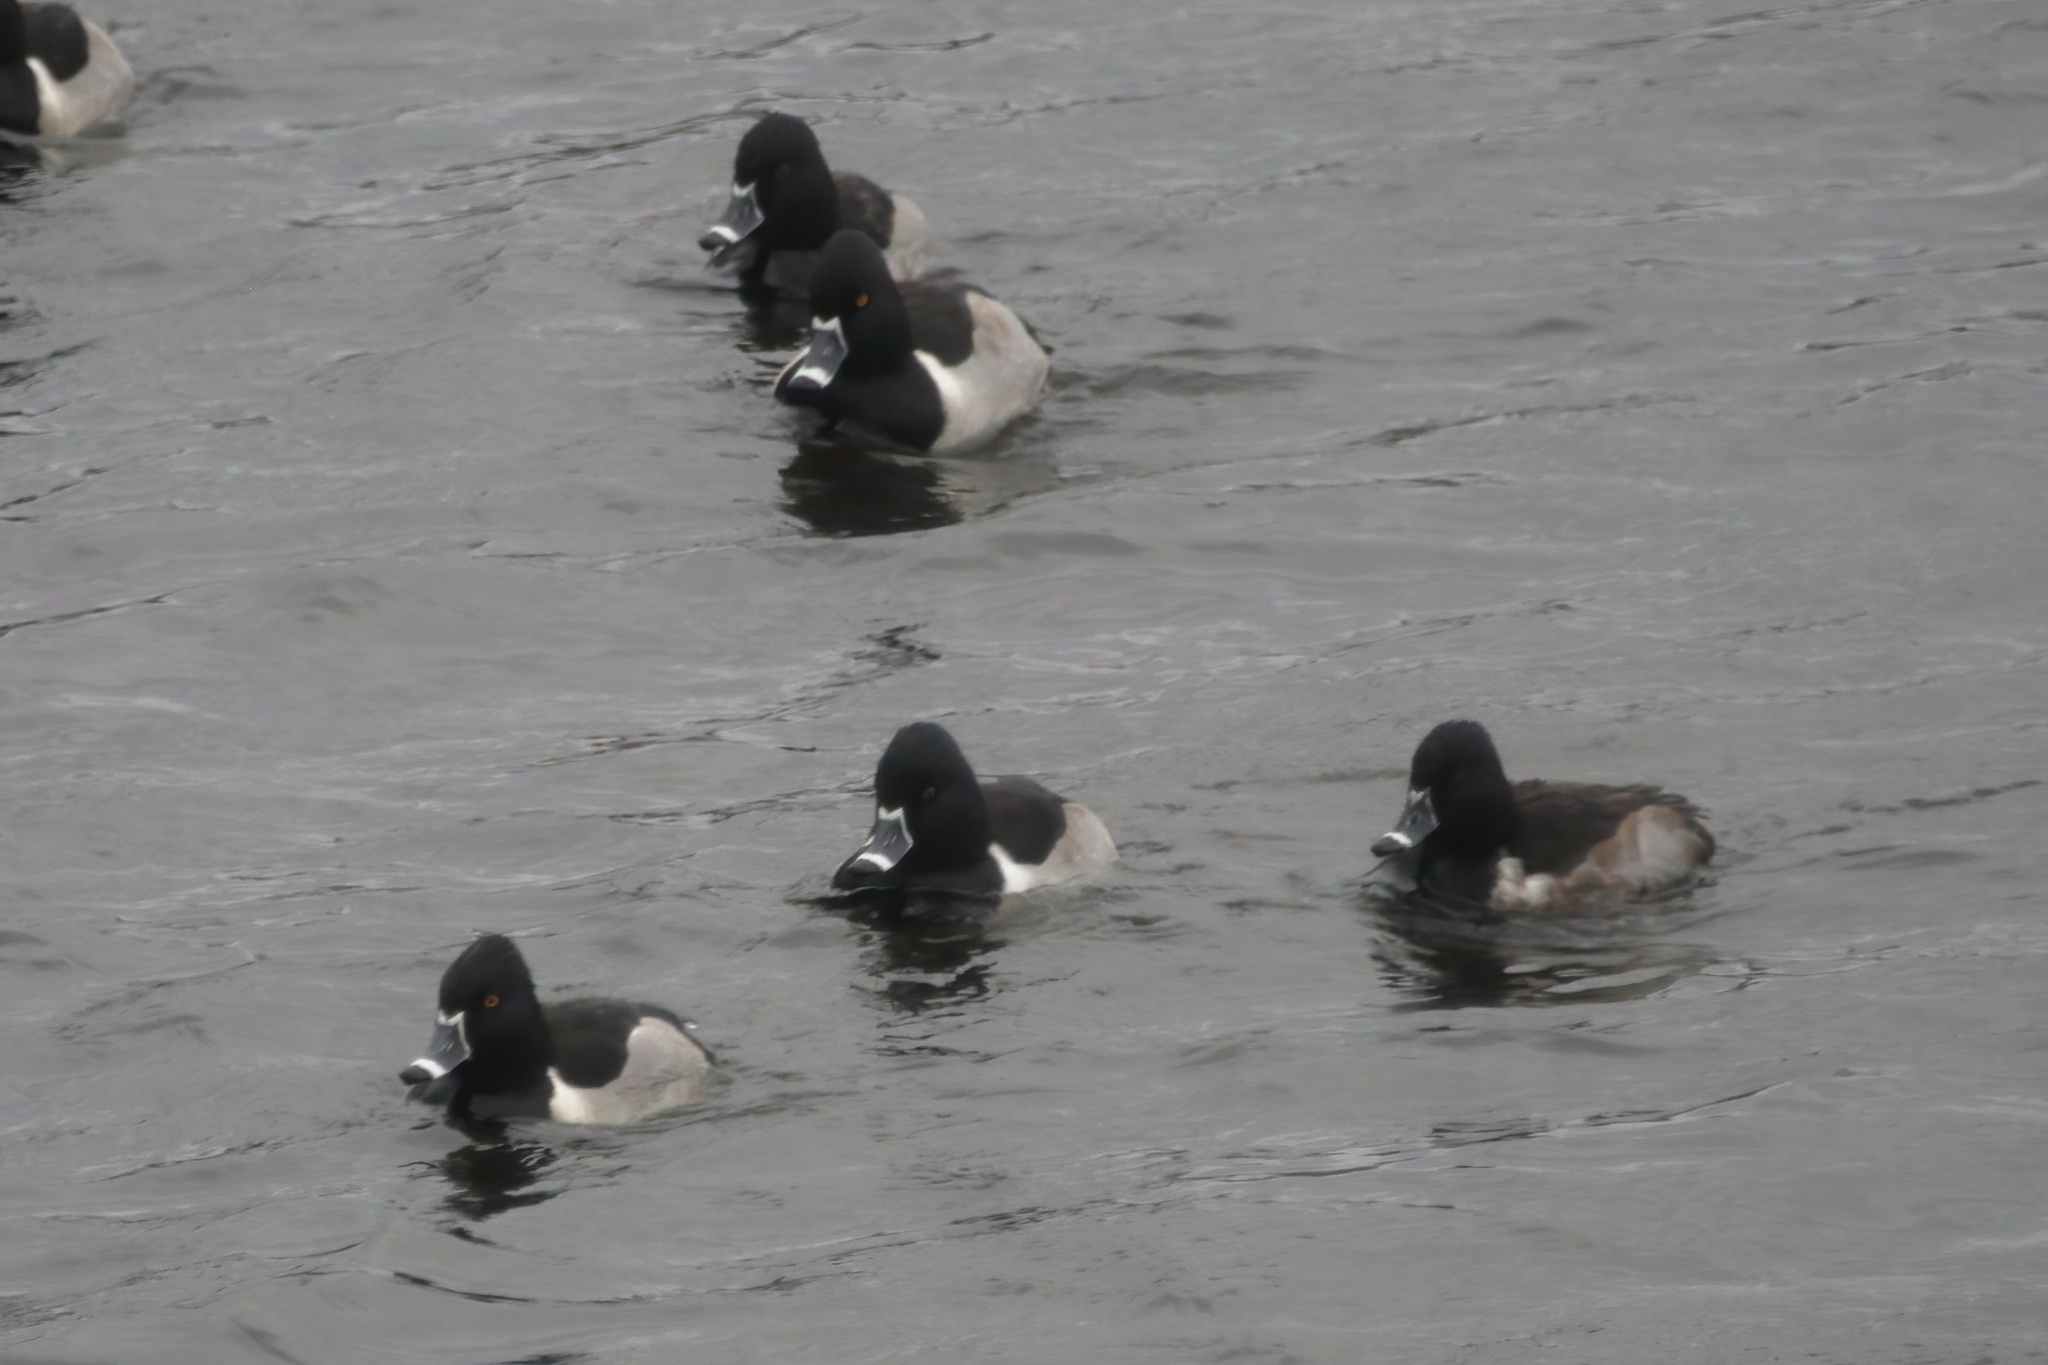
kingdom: Animalia
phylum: Chordata
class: Aves
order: Anseriformes
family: Anatidae
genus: Aythya
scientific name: Aythya collaris
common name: Ring-necked duck
